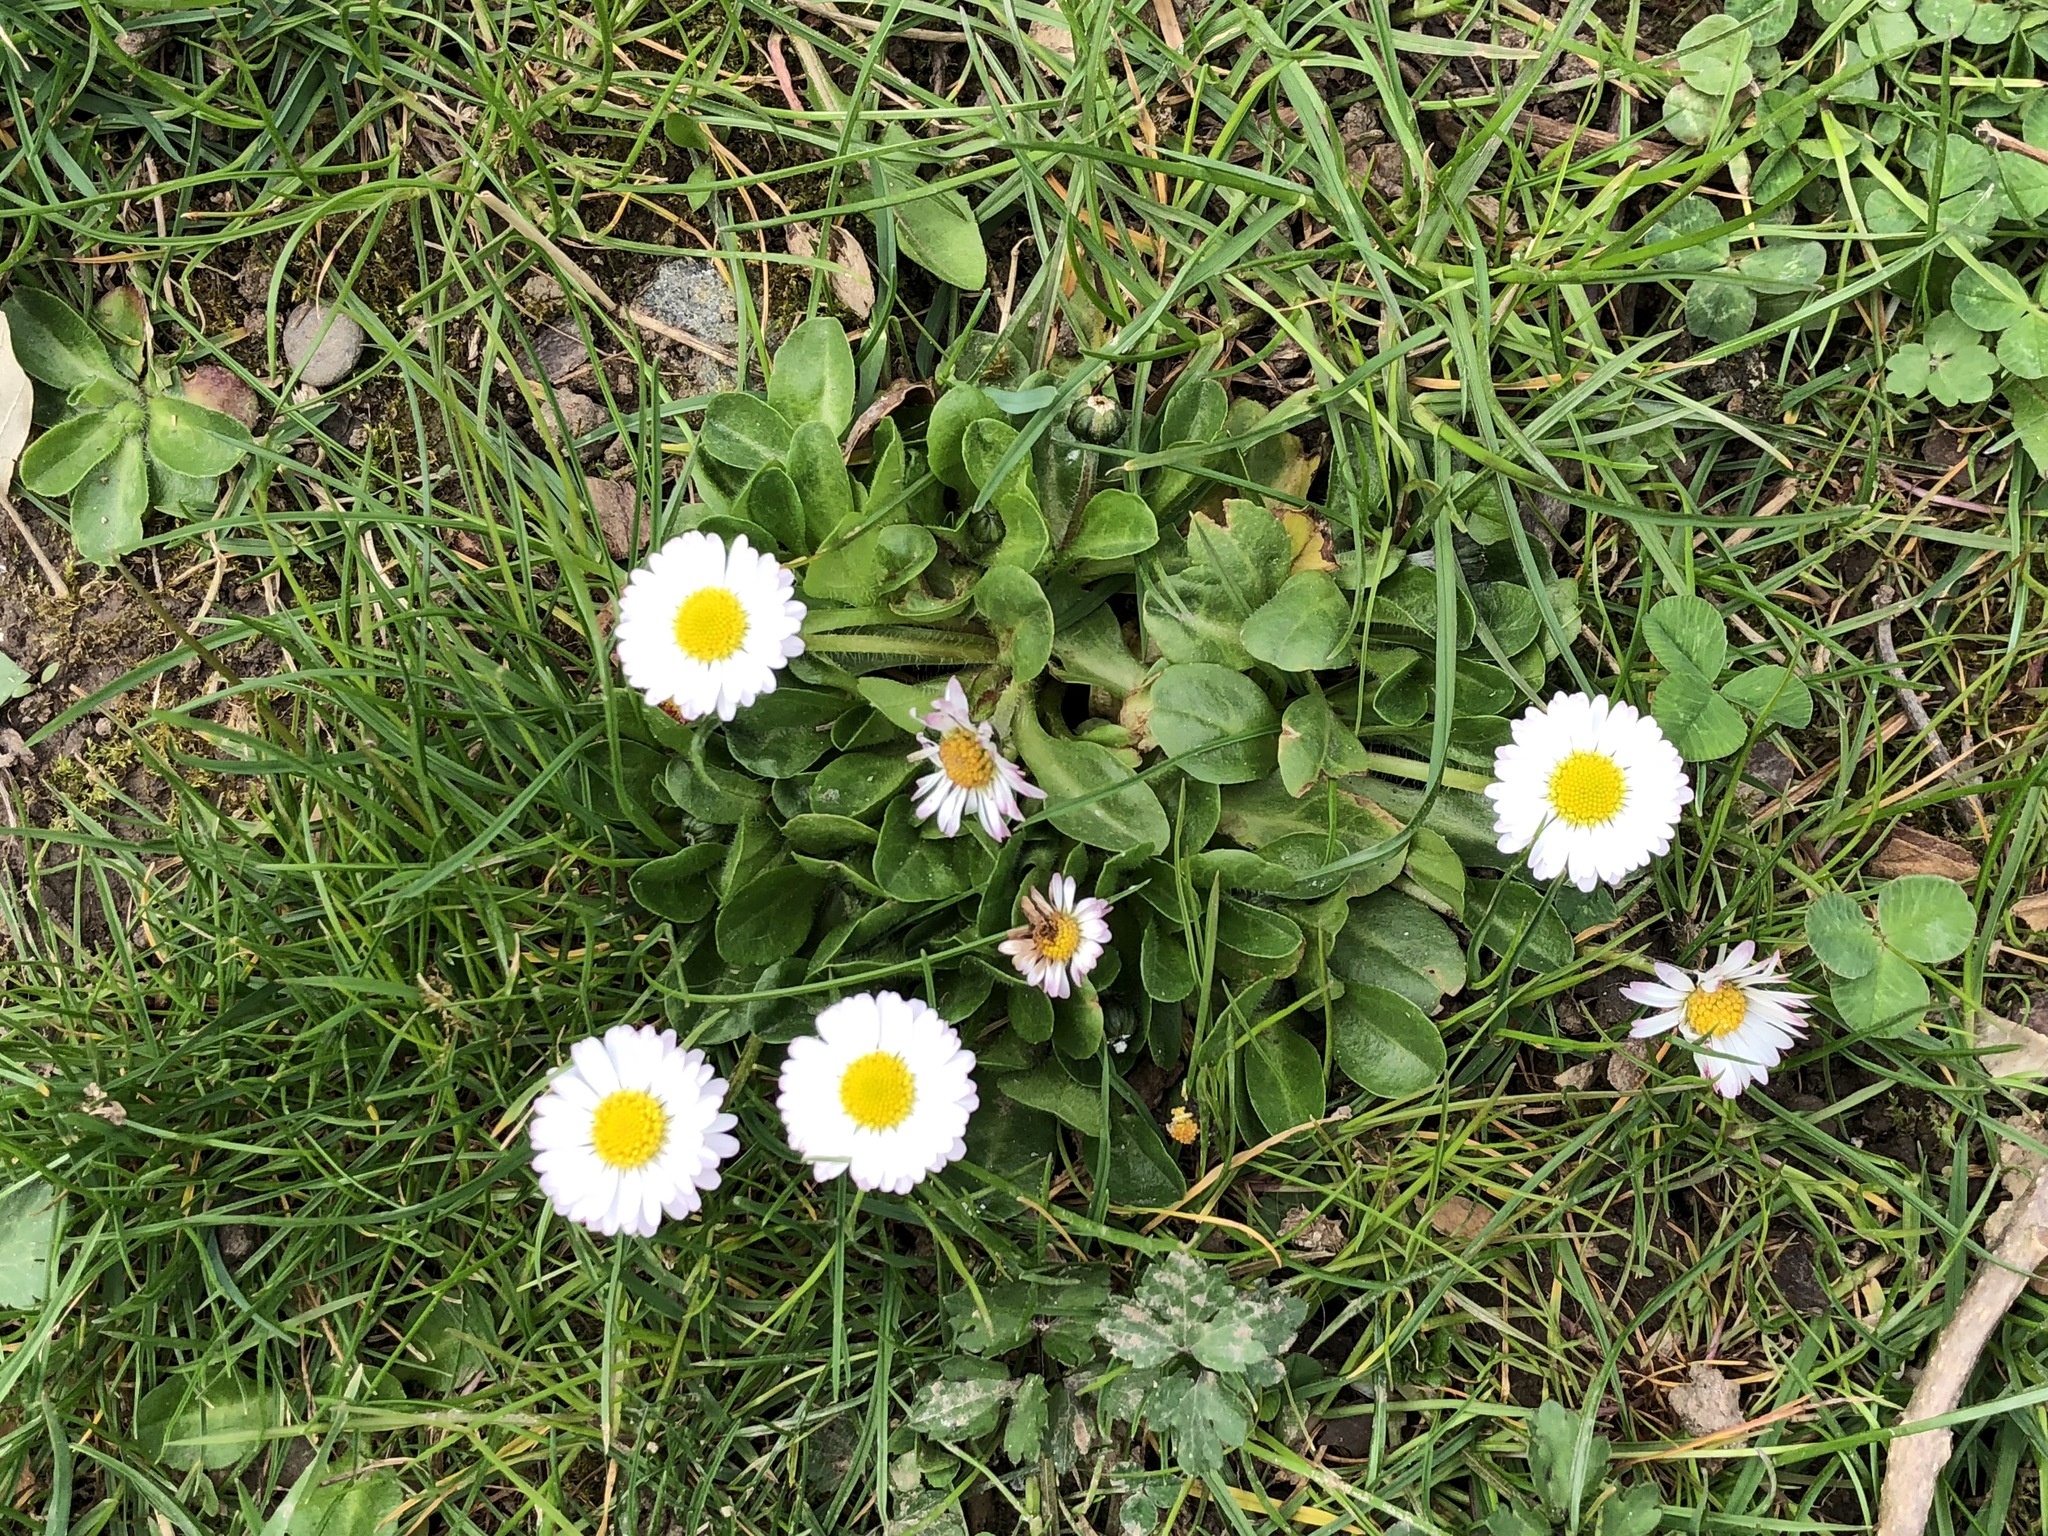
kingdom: Plantae
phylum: Tracheophyta
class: Magnoliopsida
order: Asterales
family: Asteraceae
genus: Bellis
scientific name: Bellis perennis
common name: Lawndaisy
